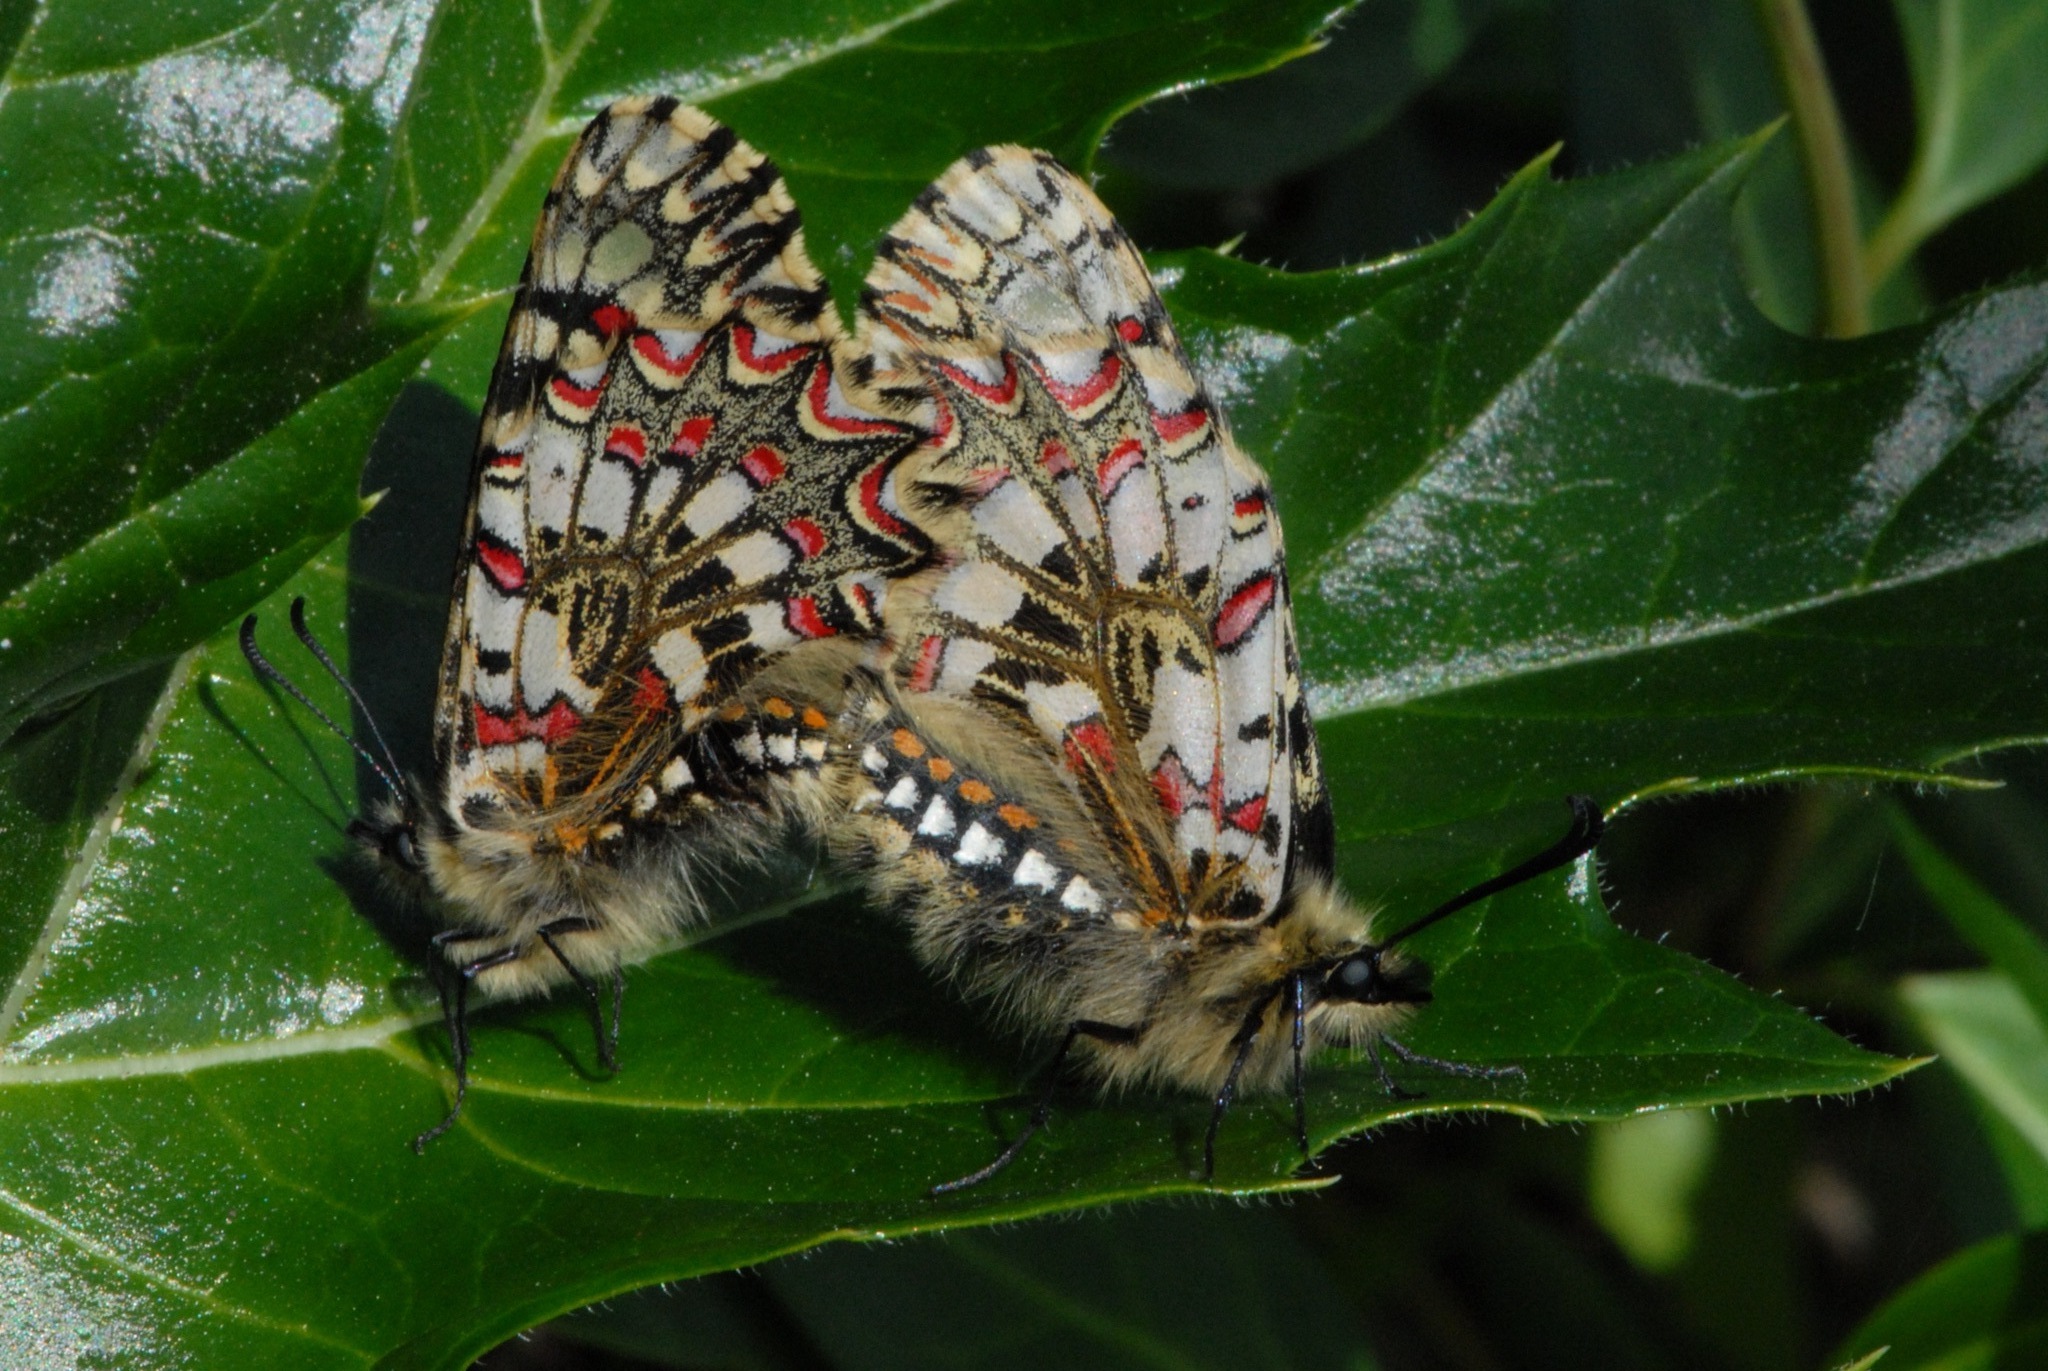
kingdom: Animalia
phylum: Arthropoda
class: Insecta
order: Lepidoptera
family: Papilionidae
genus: Zerynthia
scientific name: Zerynthia rumina
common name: Spanish festoon
